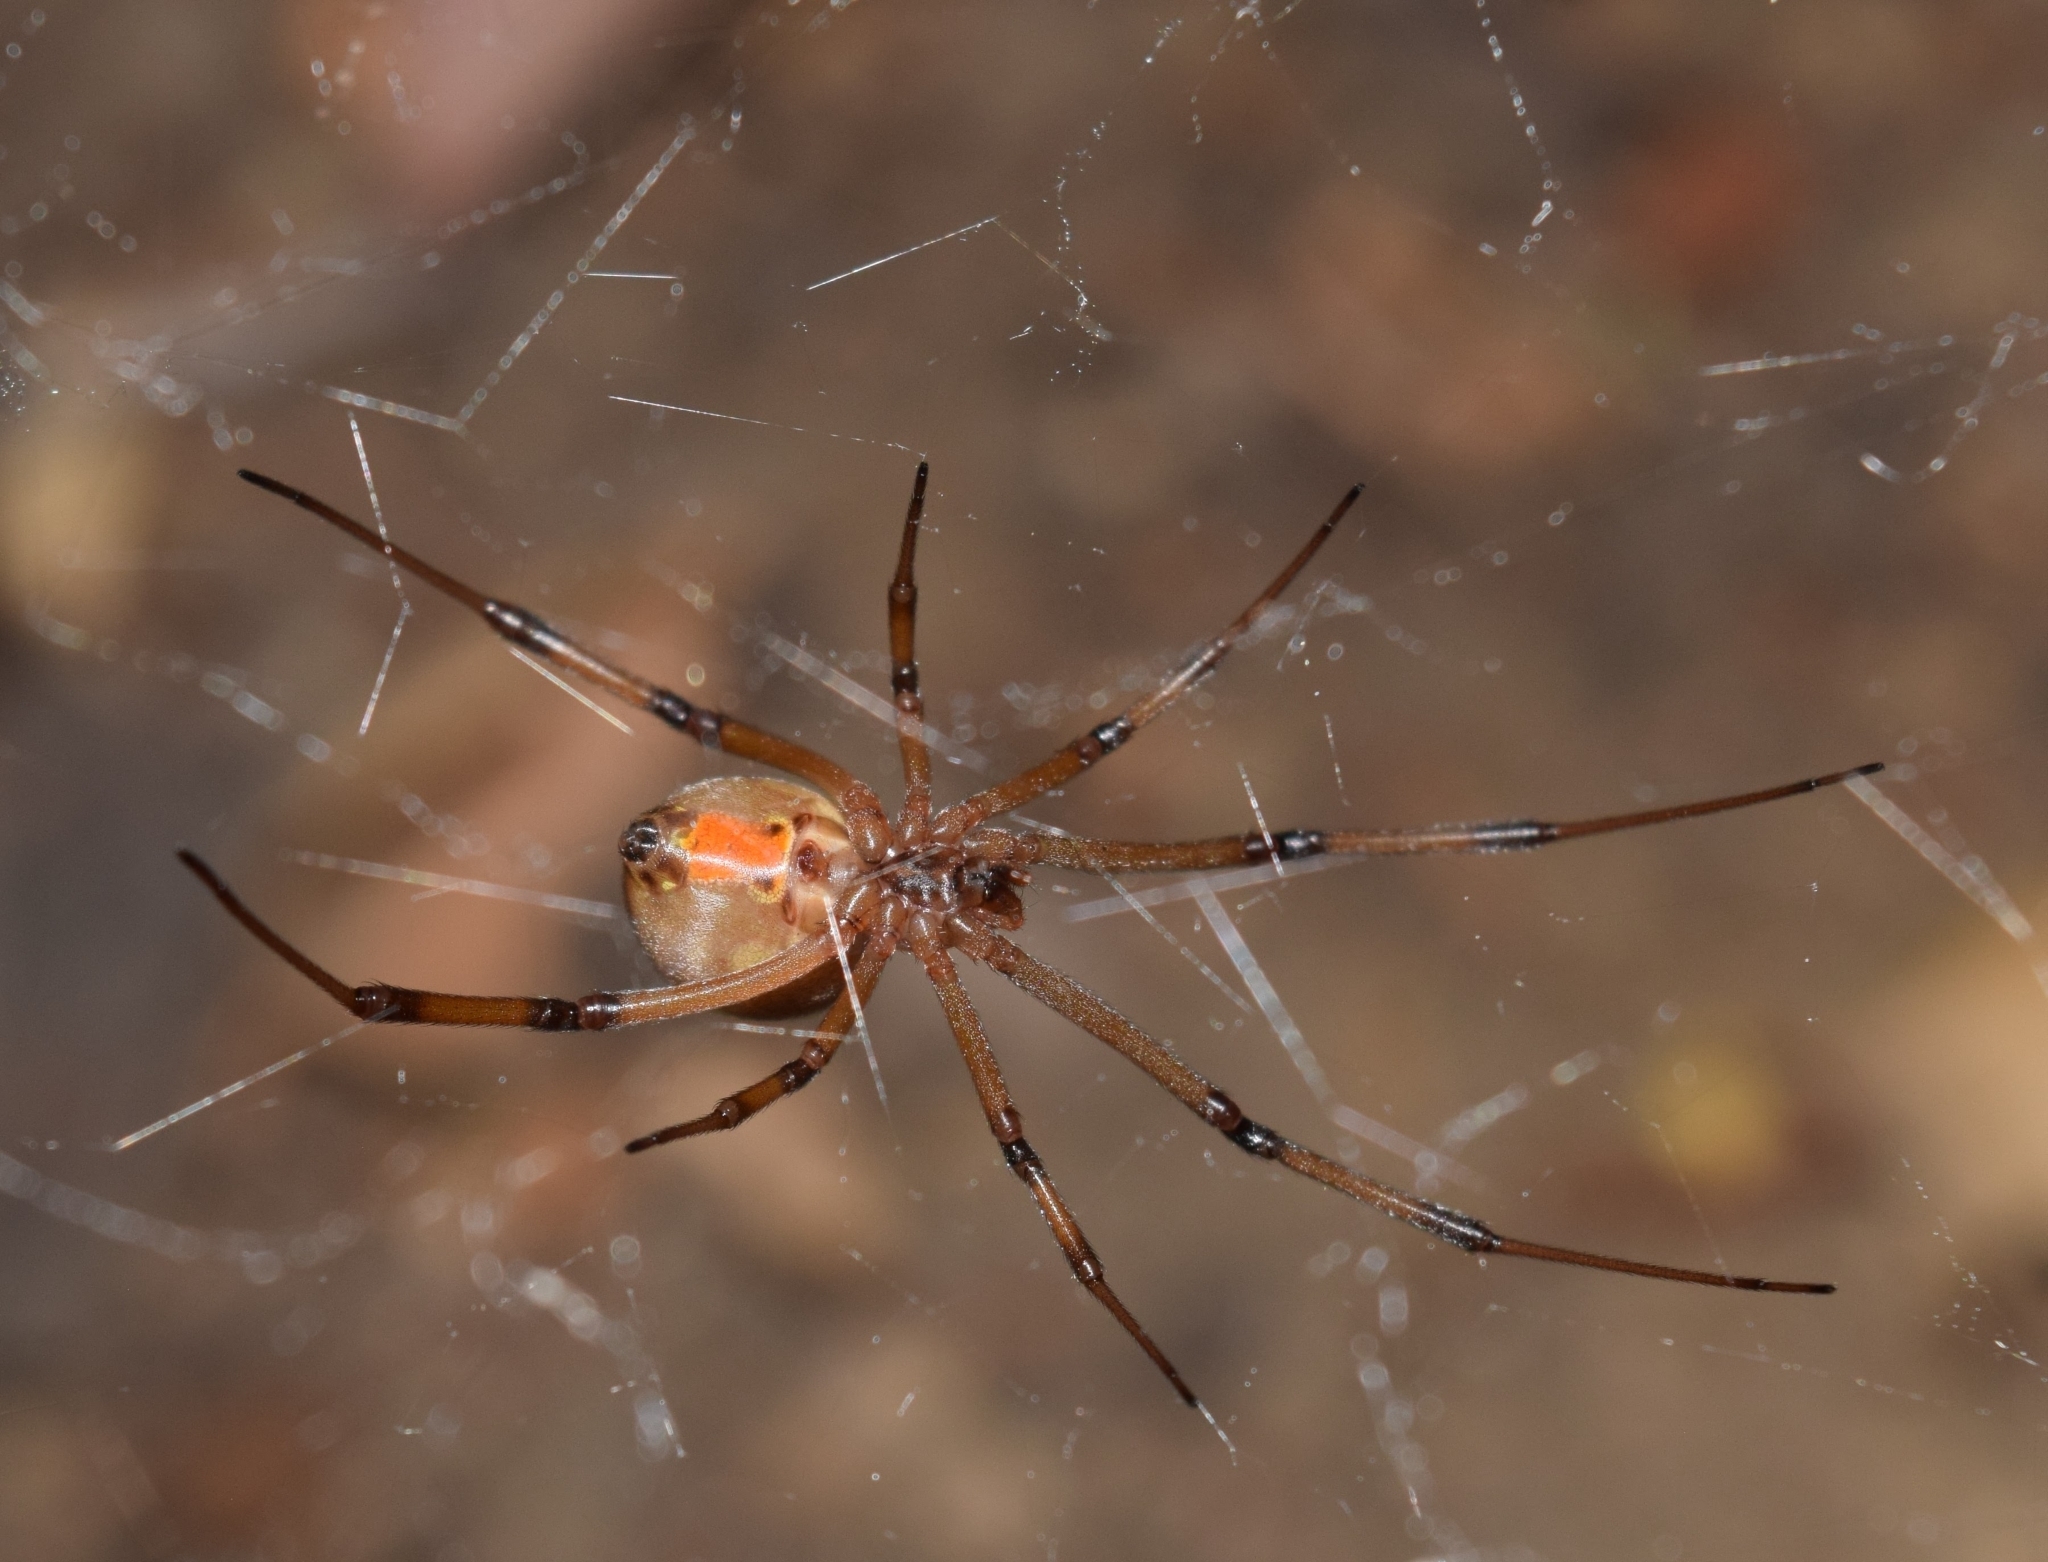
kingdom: Animalia
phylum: Arthropoda
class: Arachnida
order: Araneae
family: Theridiidae
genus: Latrodectus
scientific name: Latrodectus geometricus
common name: Brown widow spider
